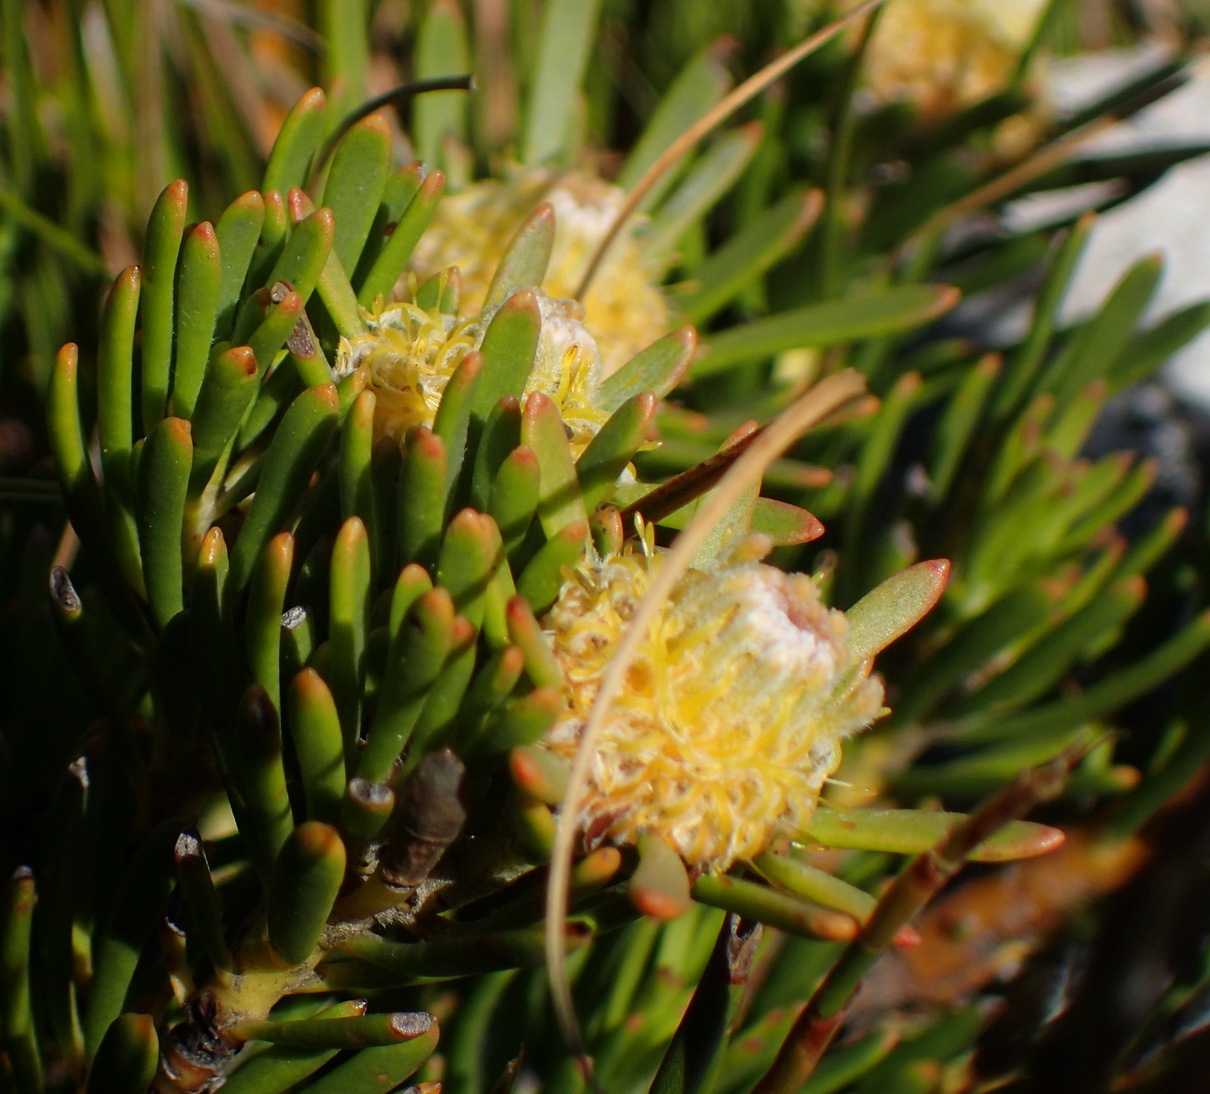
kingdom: Plantae
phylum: Tracheophyta
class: Magnoliopsida
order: Proteales
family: Proteaceae
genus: Leucadendron
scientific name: Leucadendron dregei
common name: Summit conebush
